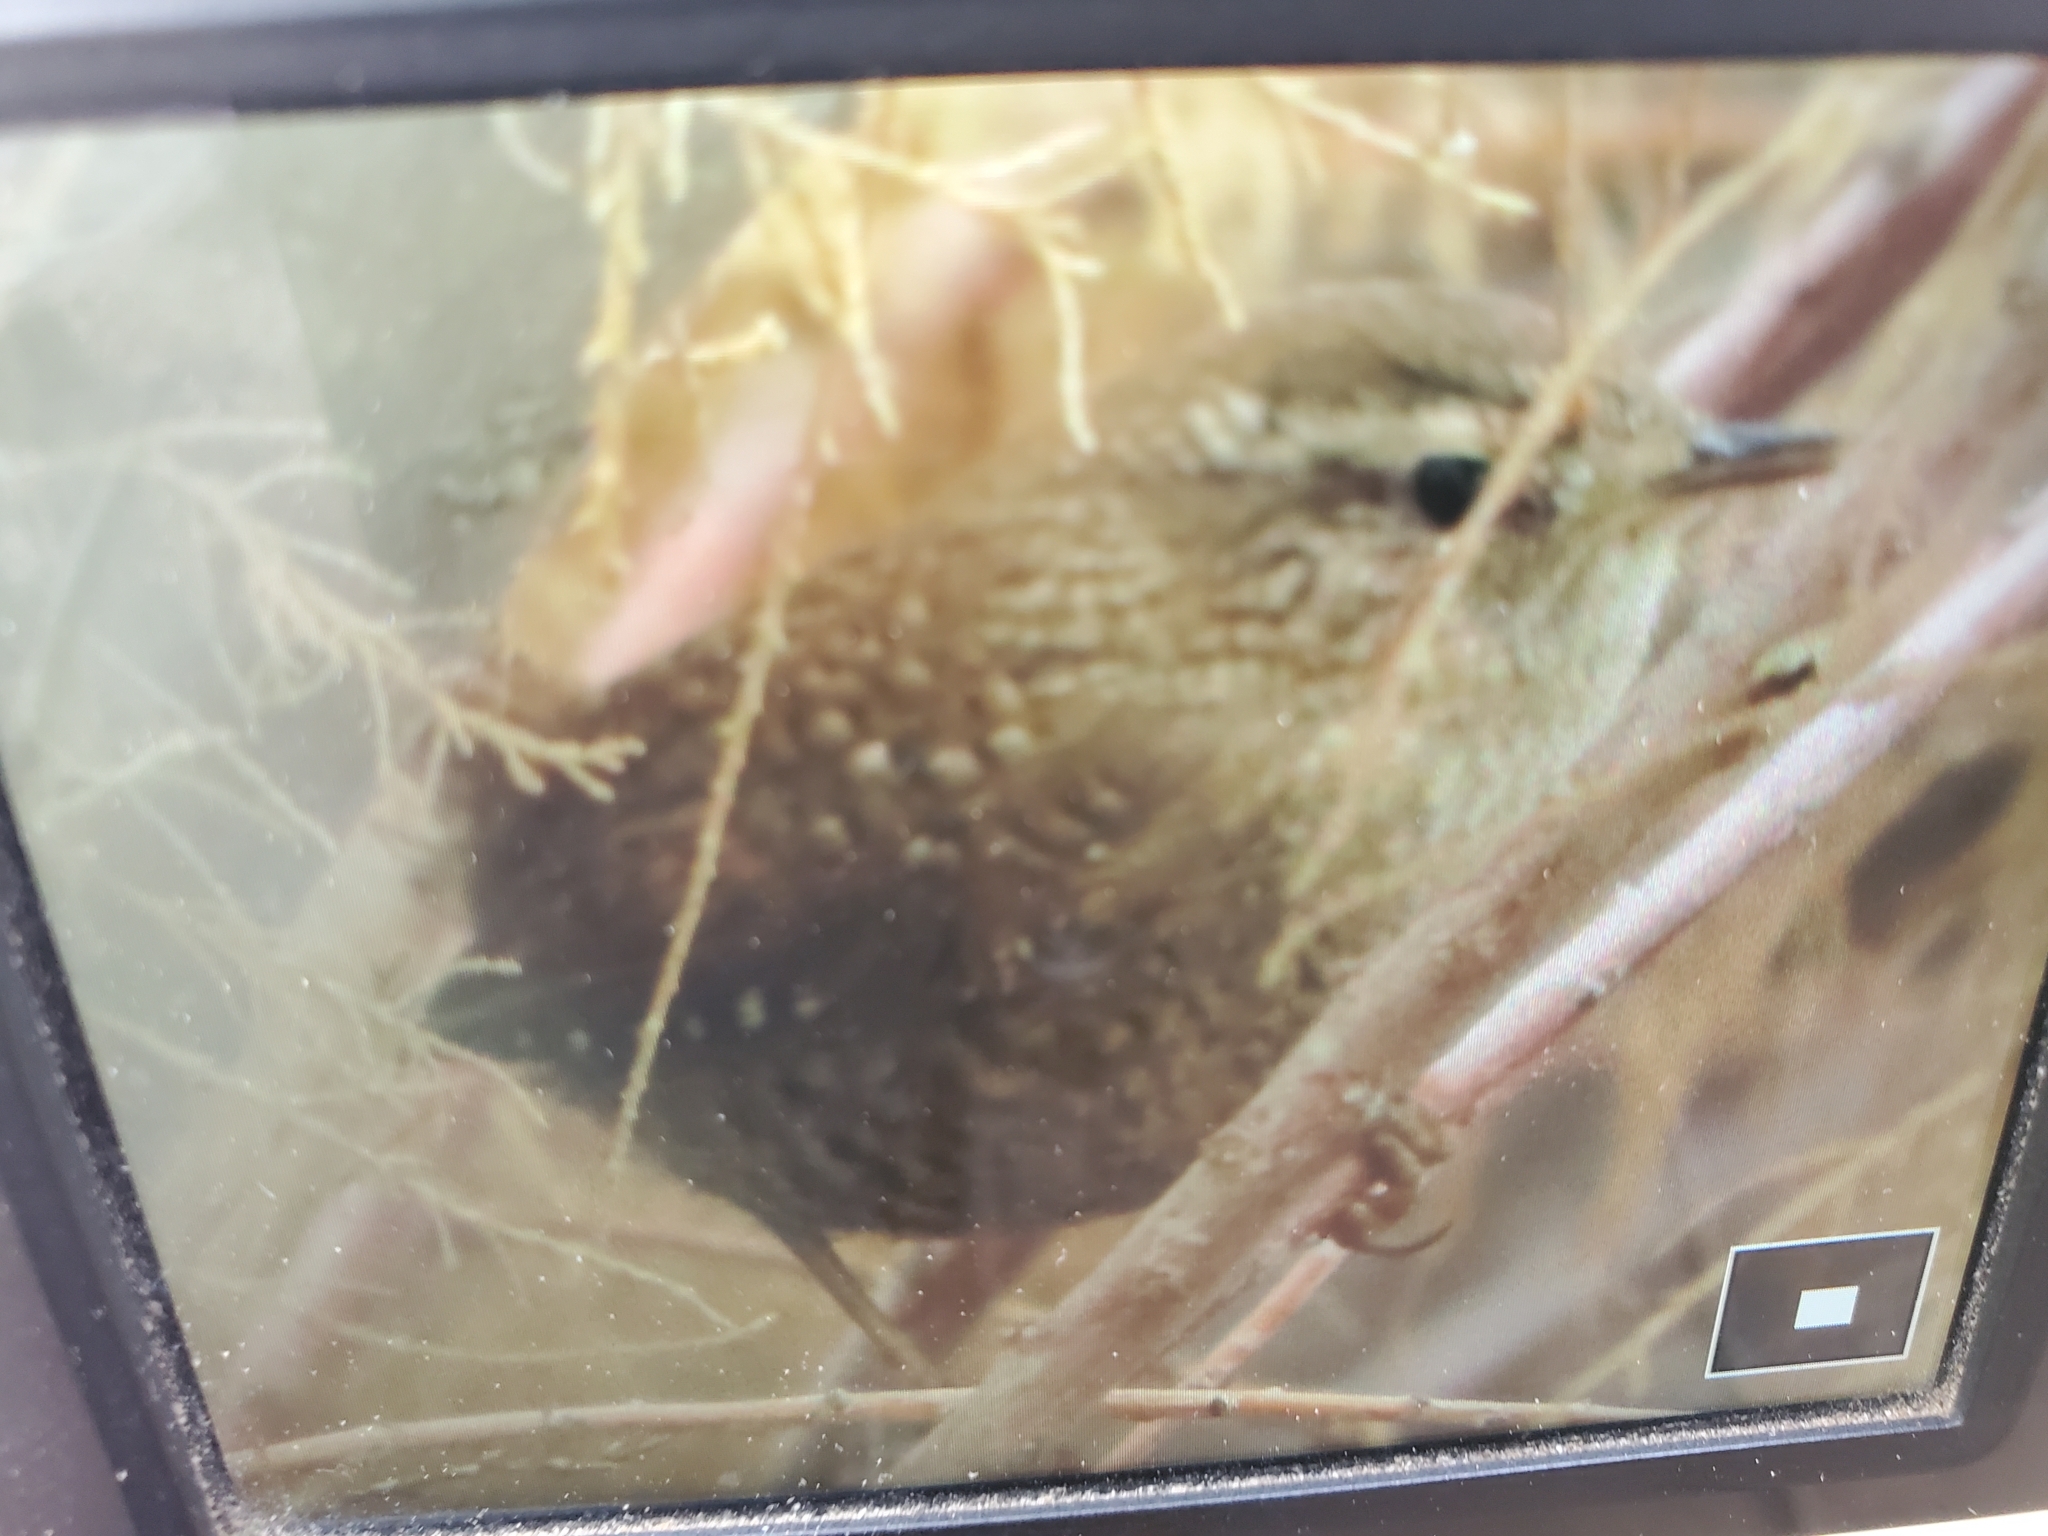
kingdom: Animalia
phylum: Chordata
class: Aves
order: Passeriformes
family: Troglodytidae
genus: Troglodytes
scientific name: Troglodytes hiemalis
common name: Winter wren
